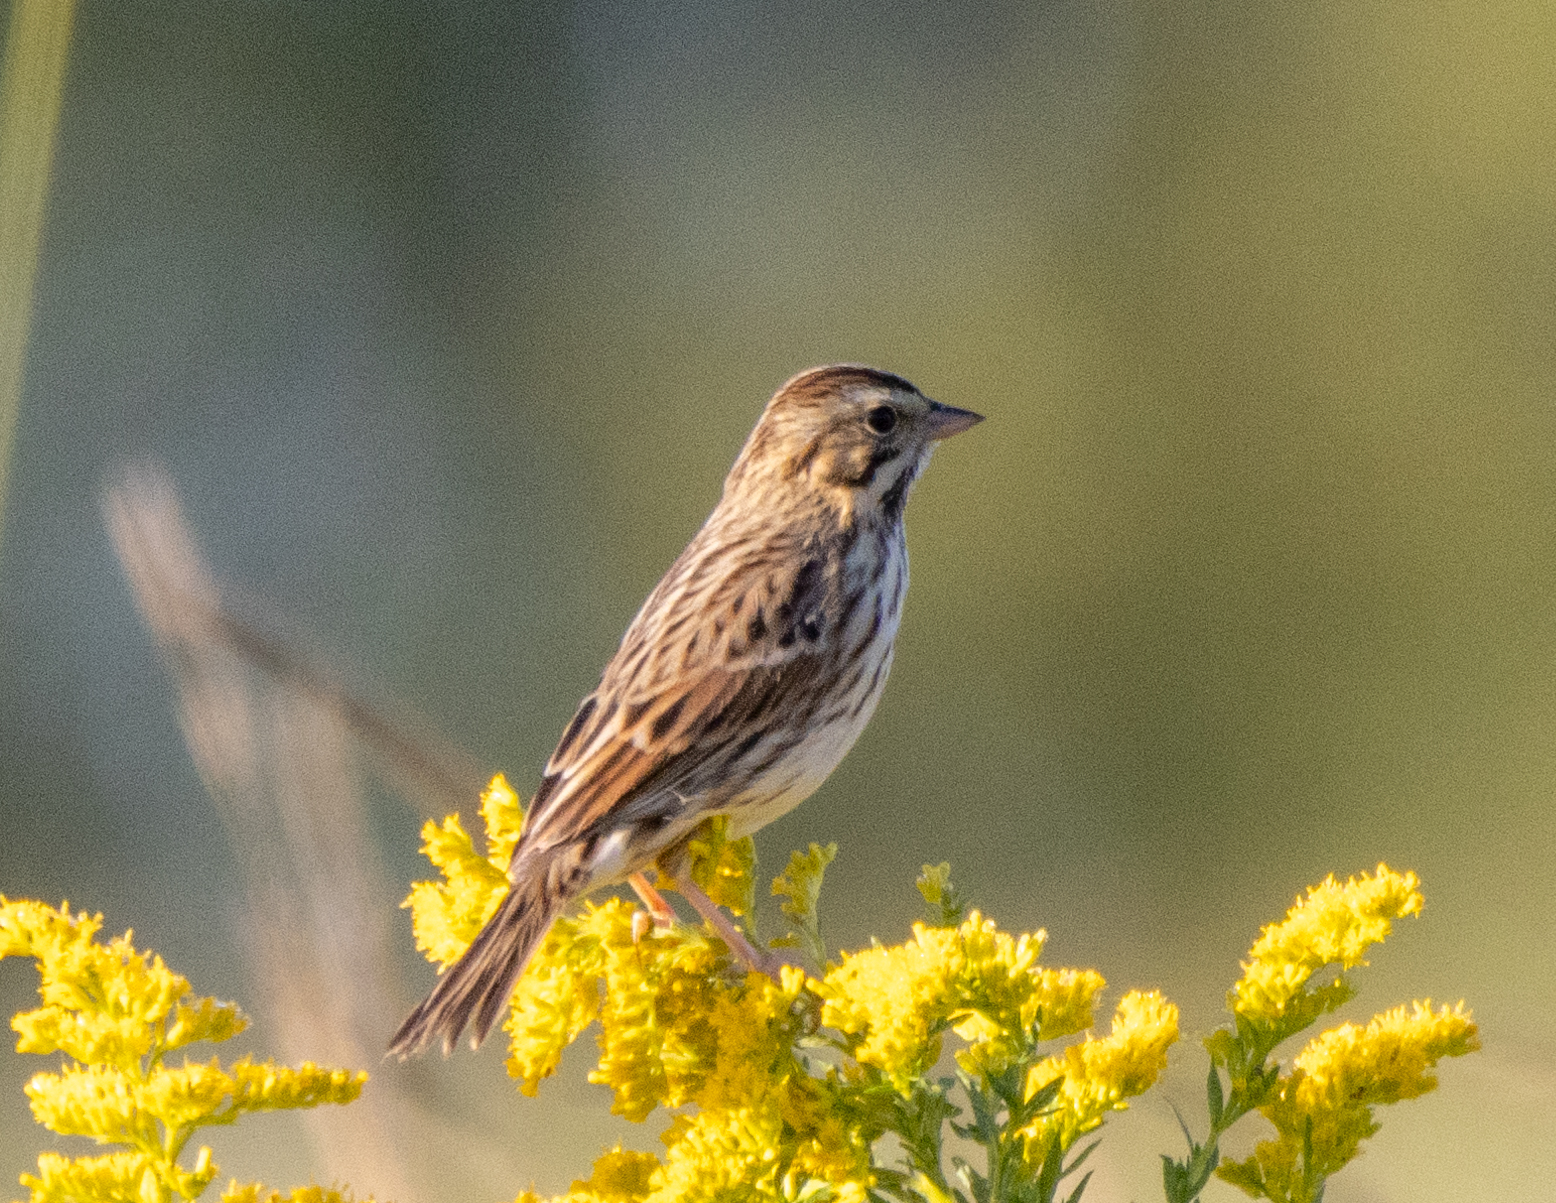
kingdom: Animalia
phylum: Chordata
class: Aves
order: Passeriformes
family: Passerellidae
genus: Passerculus
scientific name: Passerculus sandwichensis
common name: Savannah sparrow
